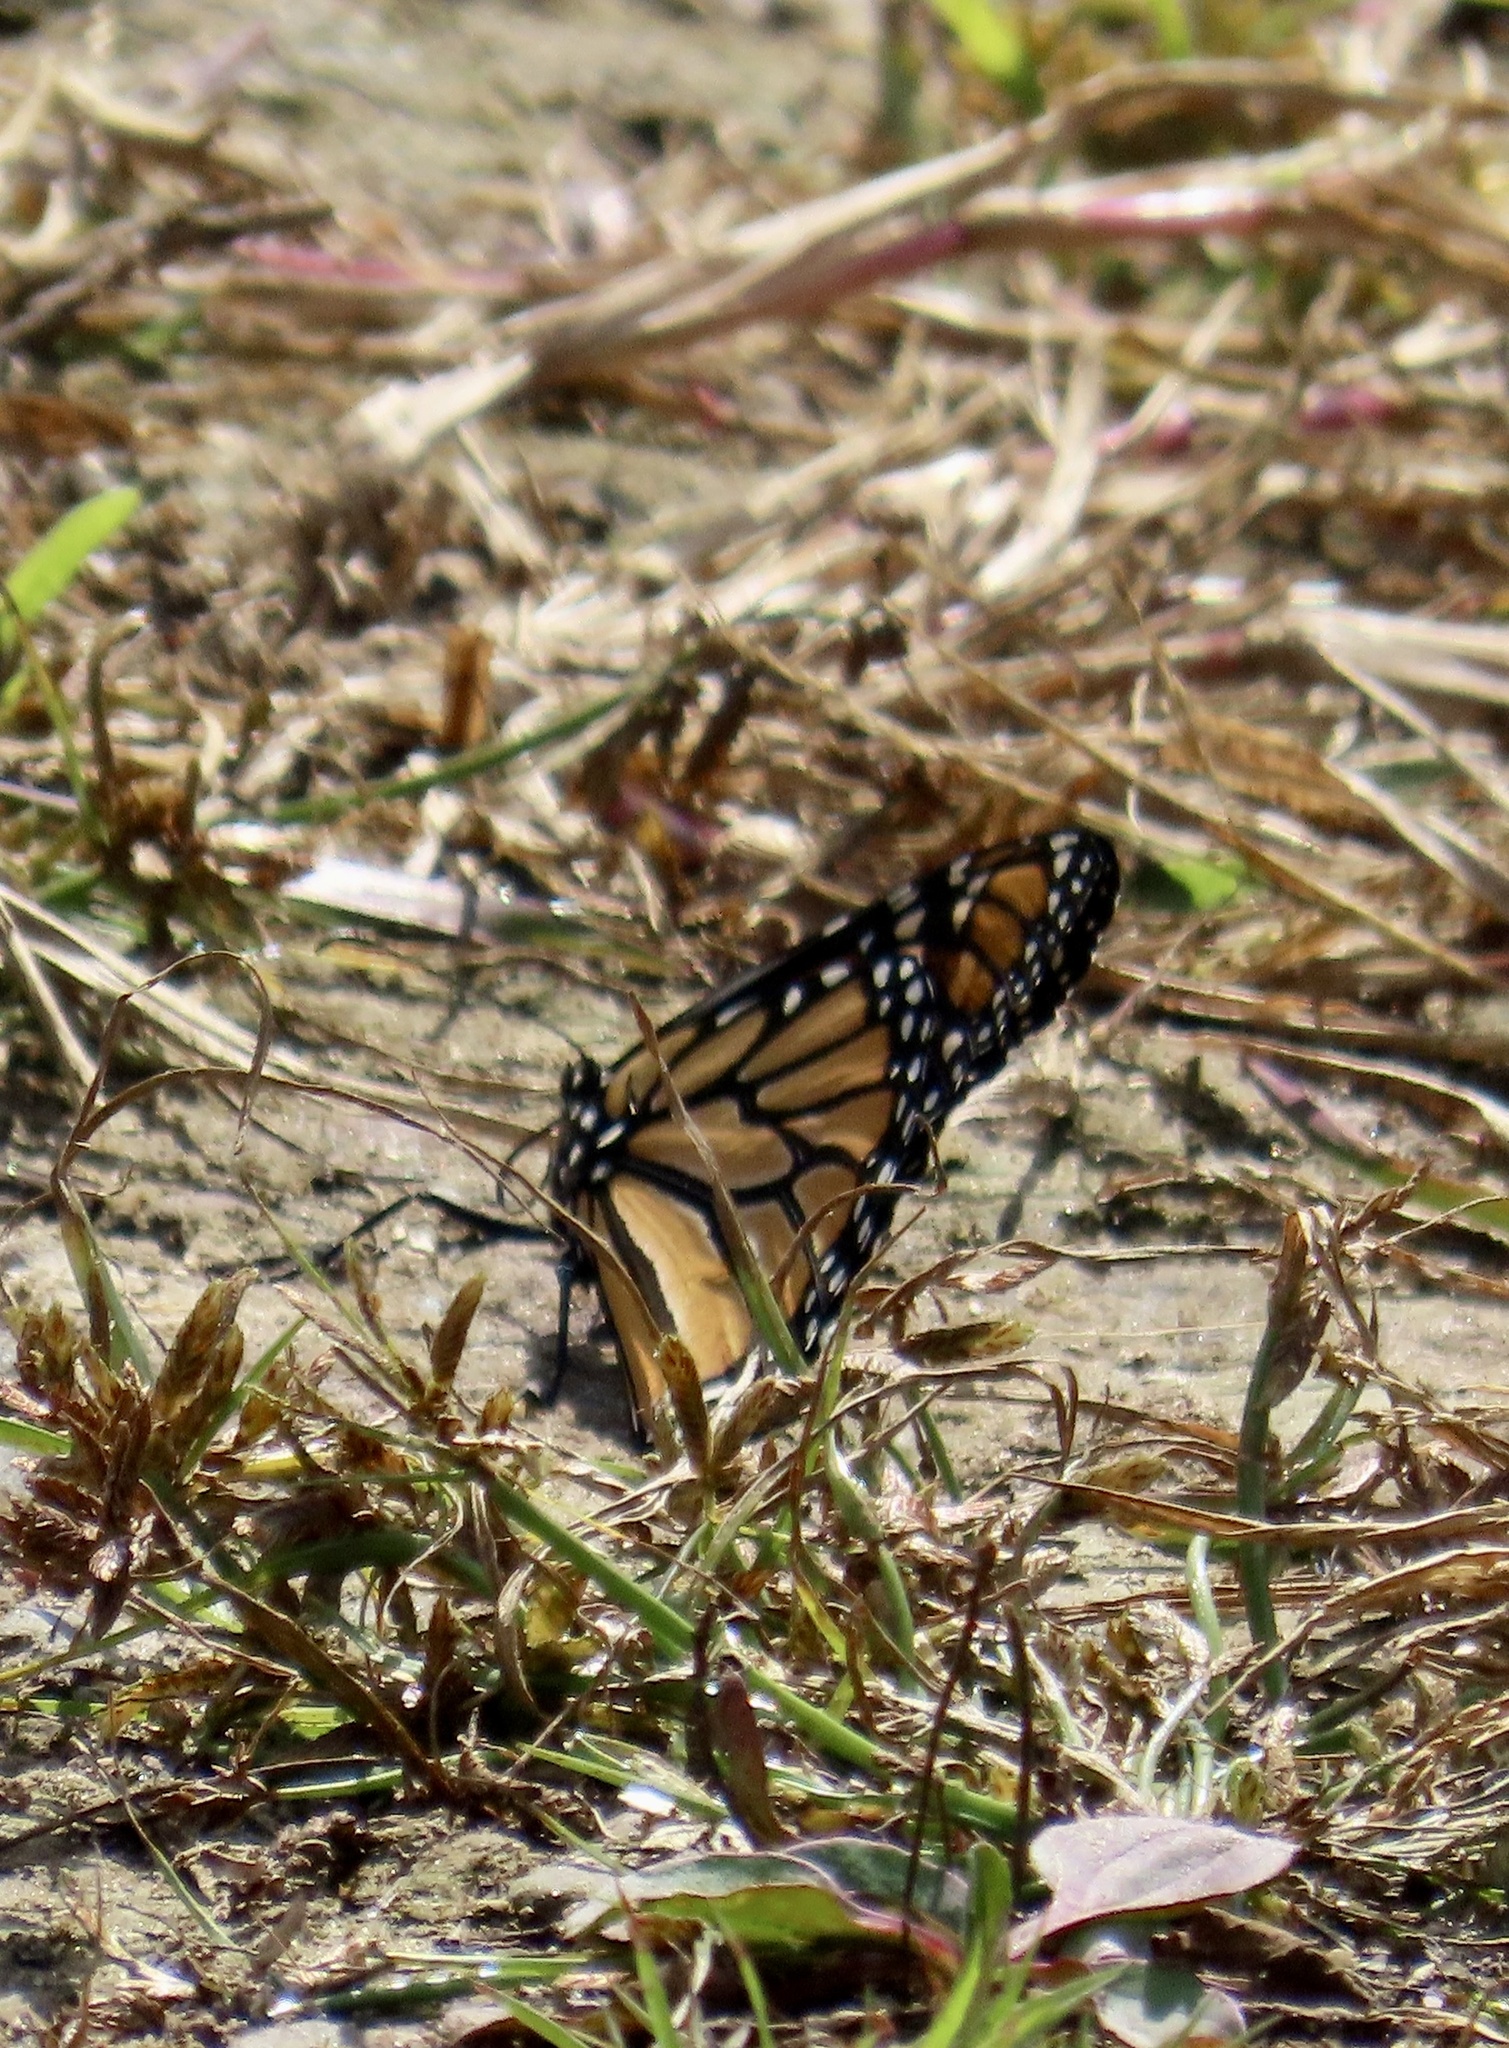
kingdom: Animalia
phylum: Arthropoda
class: Insecta
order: Lepidoptera
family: Nymphalidae
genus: Danaus
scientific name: Danaus plexippus
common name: Monarch
